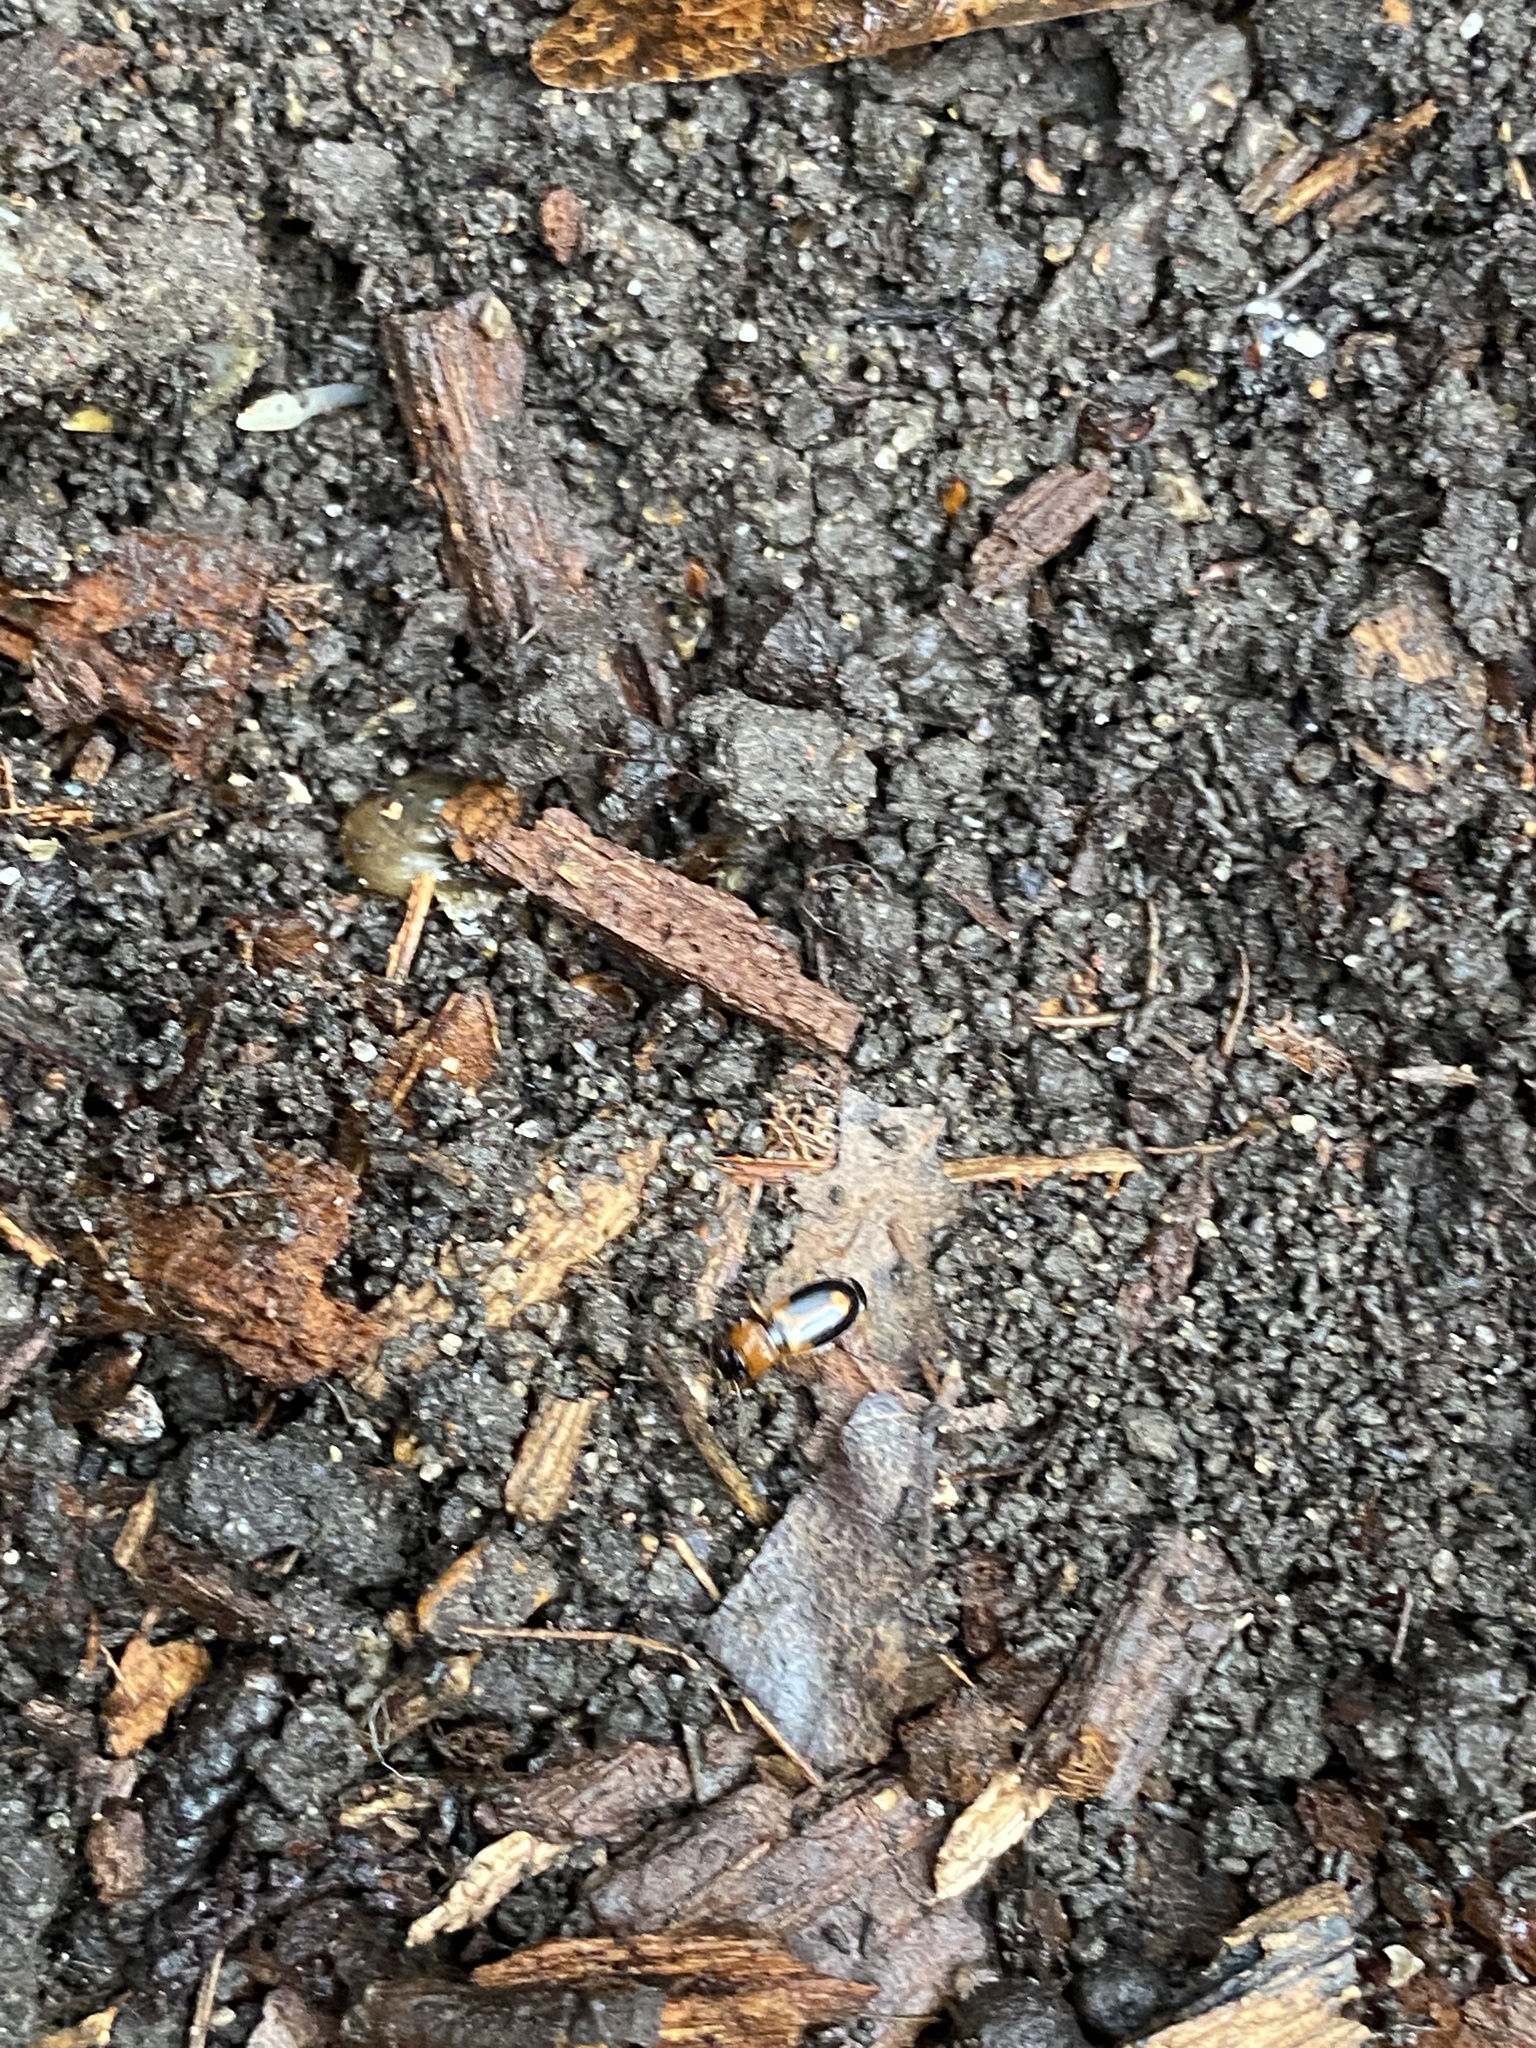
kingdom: Animalia
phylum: Arthropoda
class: Insecta
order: Coleoptera
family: Carabidae
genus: Badister
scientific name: Badister bullatus
